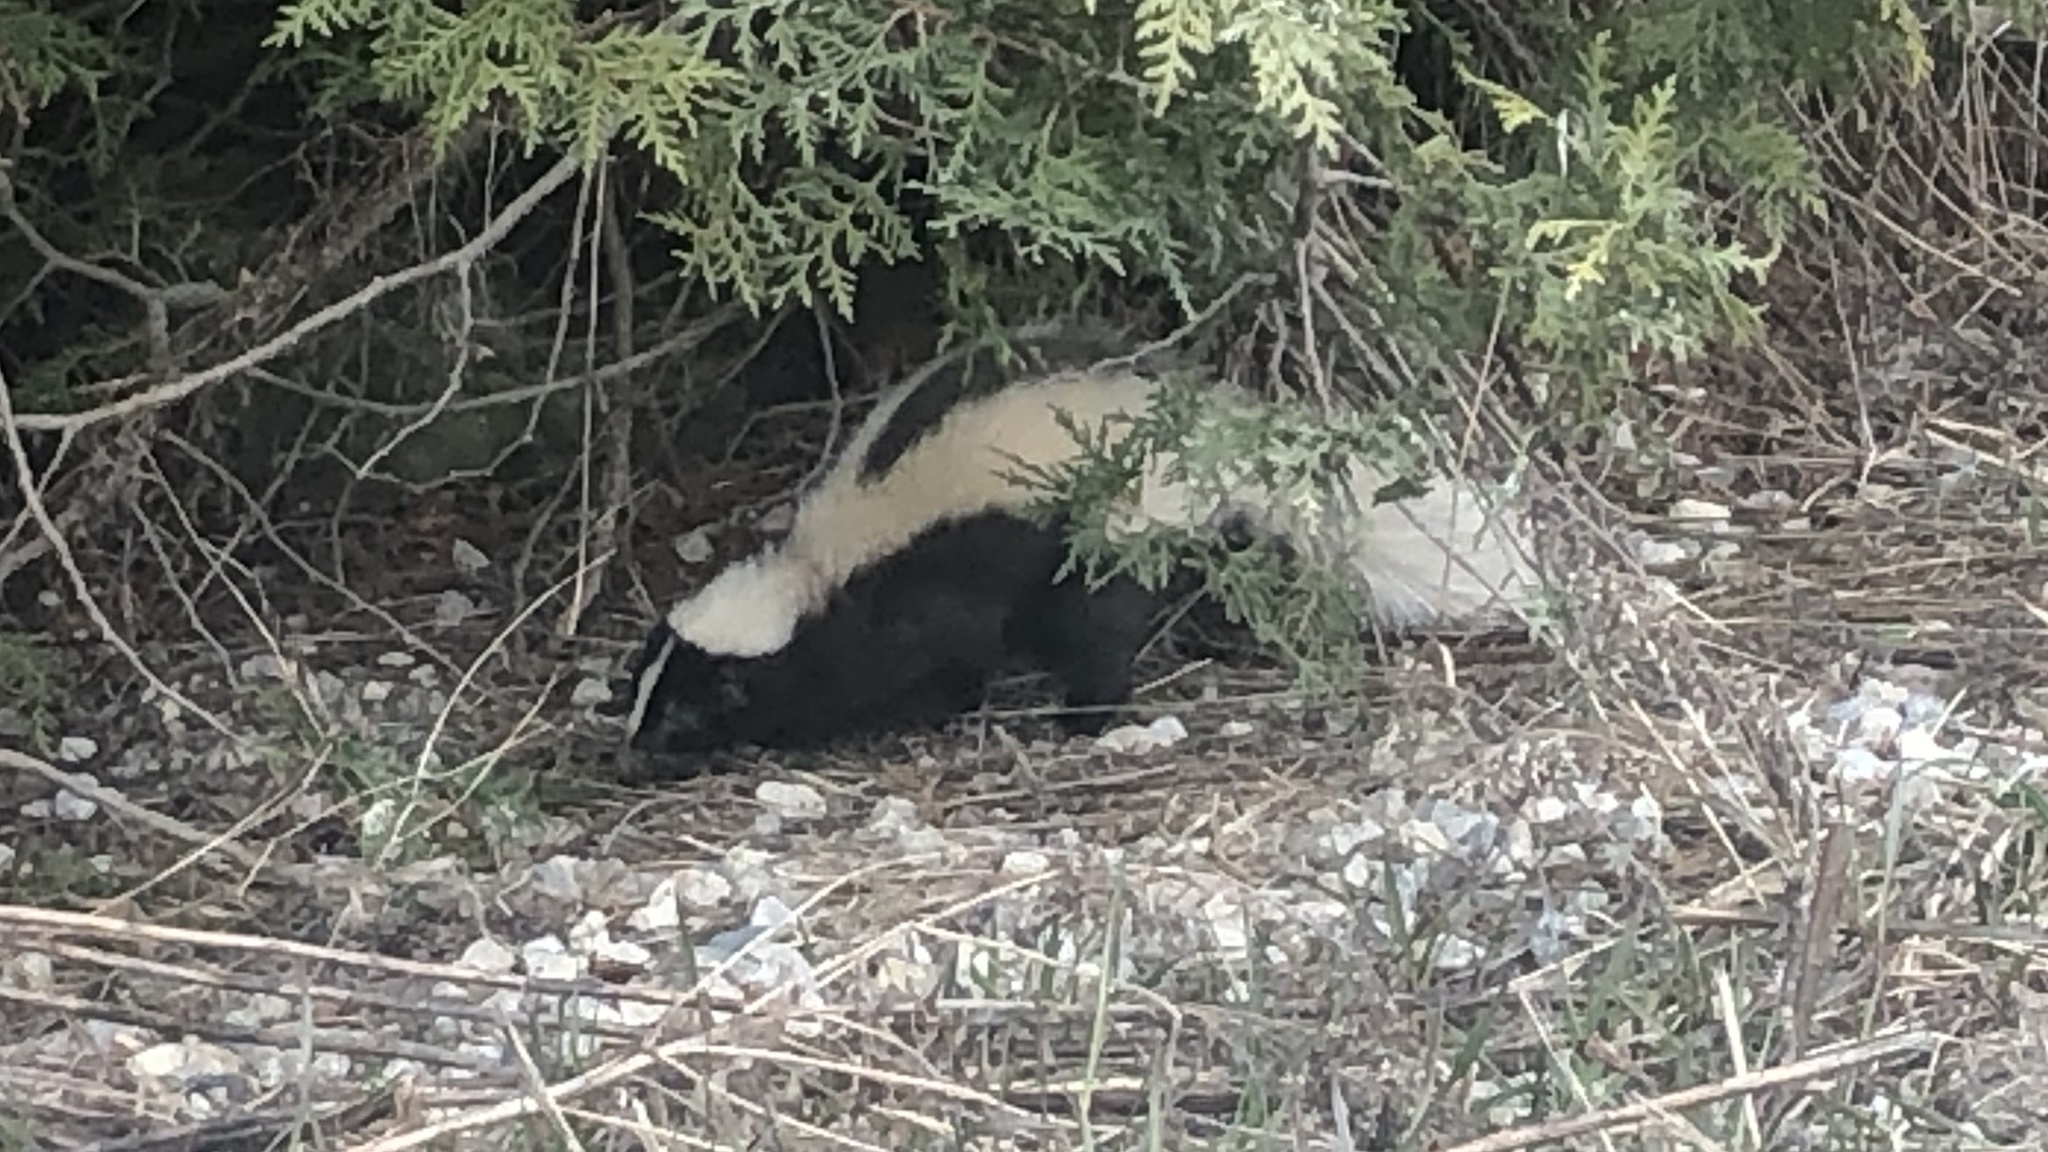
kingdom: Animalia
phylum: Chordata
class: Mammalia
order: Carnivora
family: Mephitidae
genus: Mephitis
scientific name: Mephitis mephitis
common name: Striped skunk
